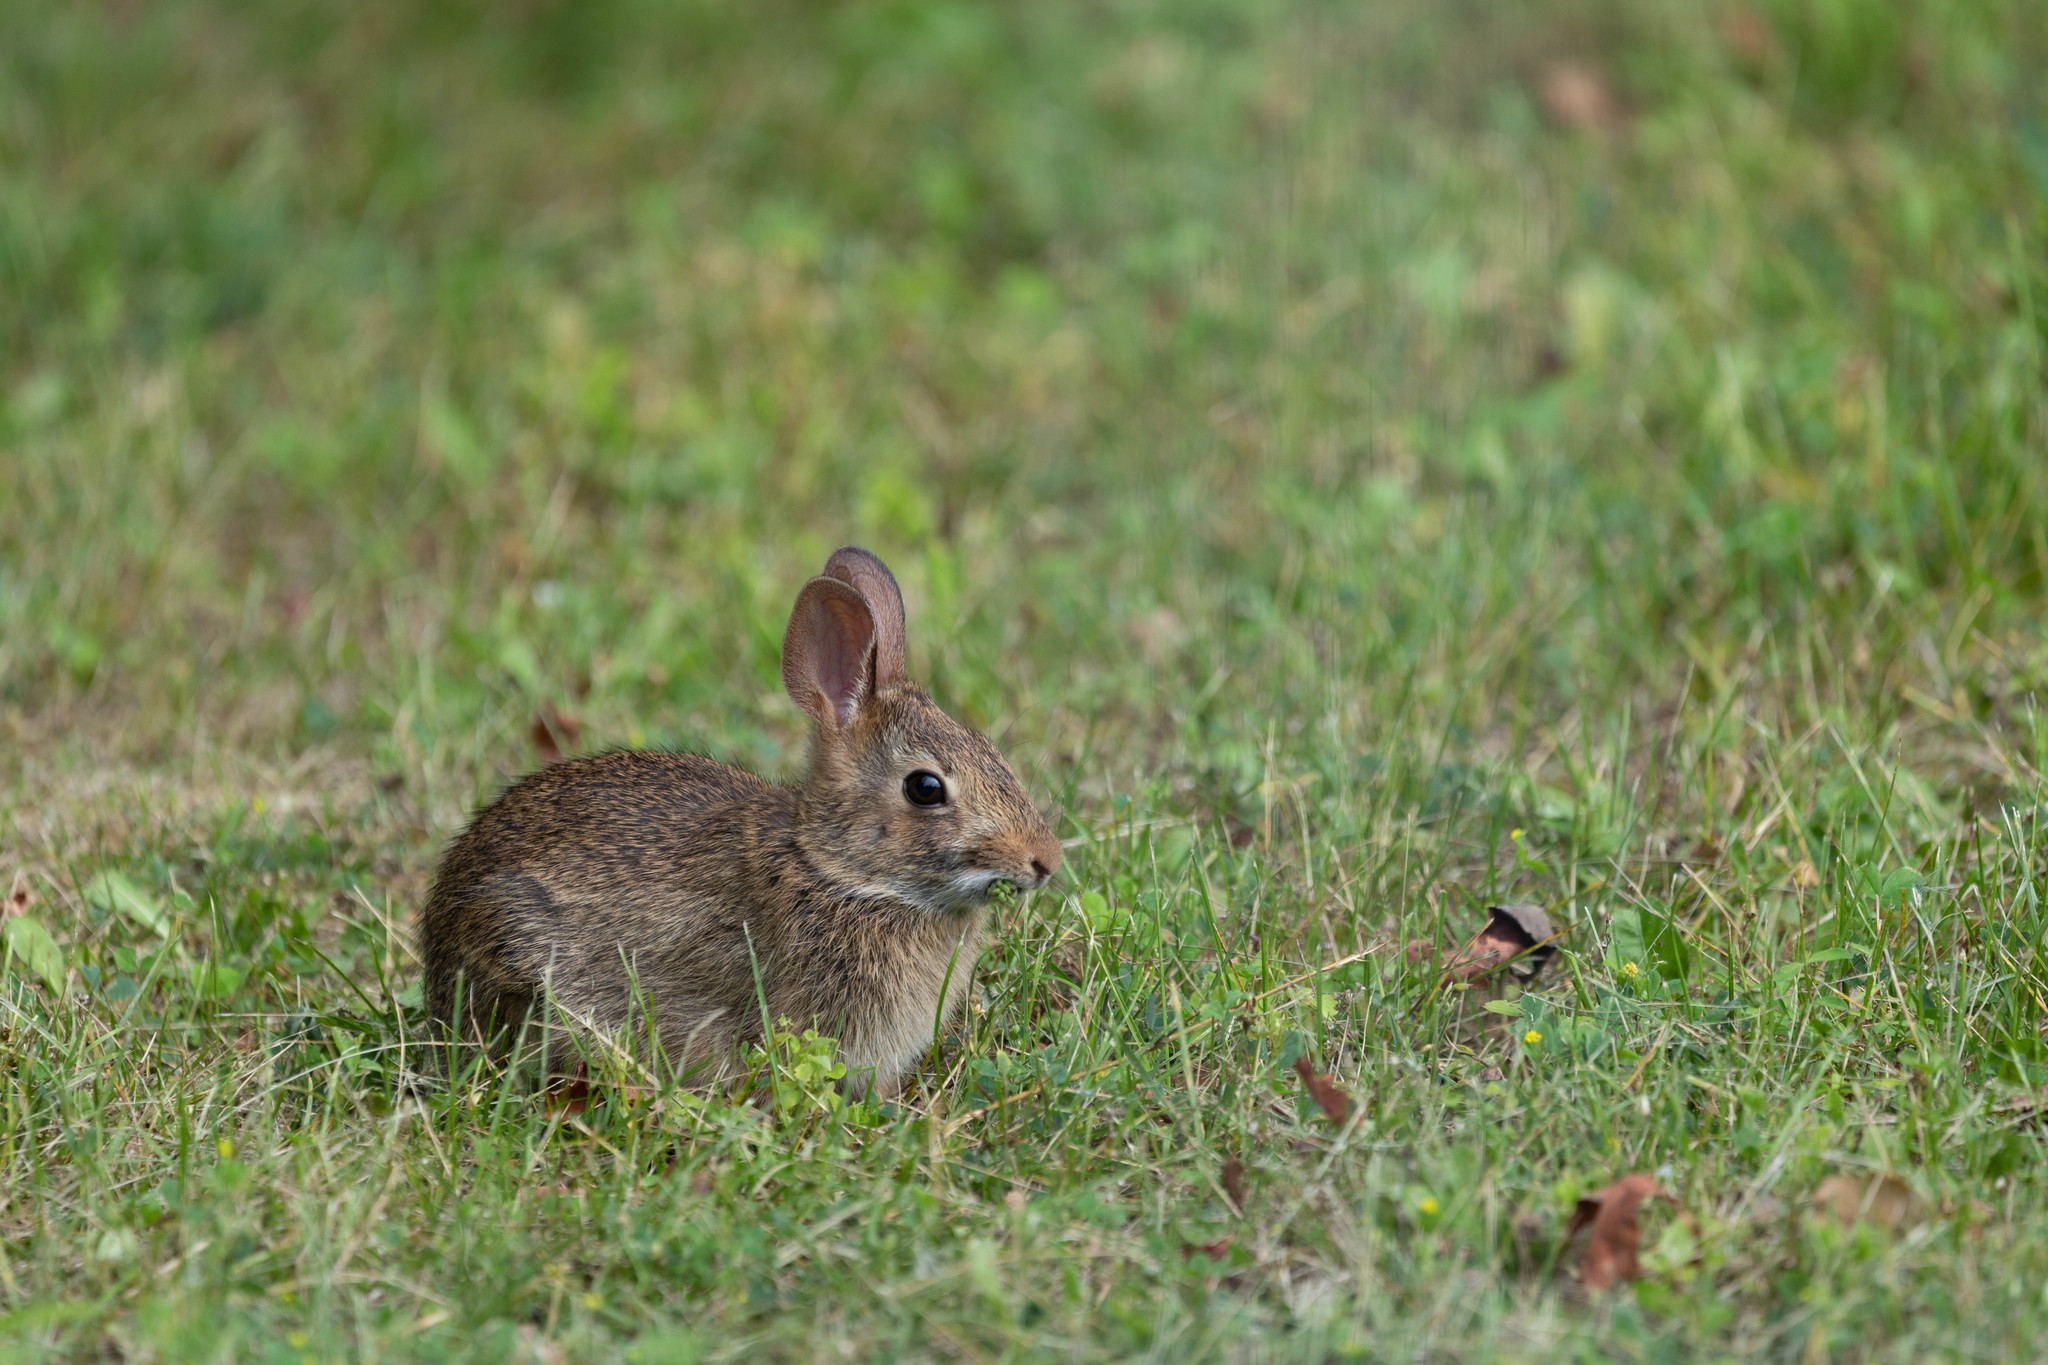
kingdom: Animalia
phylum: Chordata
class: Mammalia
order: Lagomorpha
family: Leporidae
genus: Sylvilagus
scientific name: Sylvilagus floridanus
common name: Eastern cottontail
